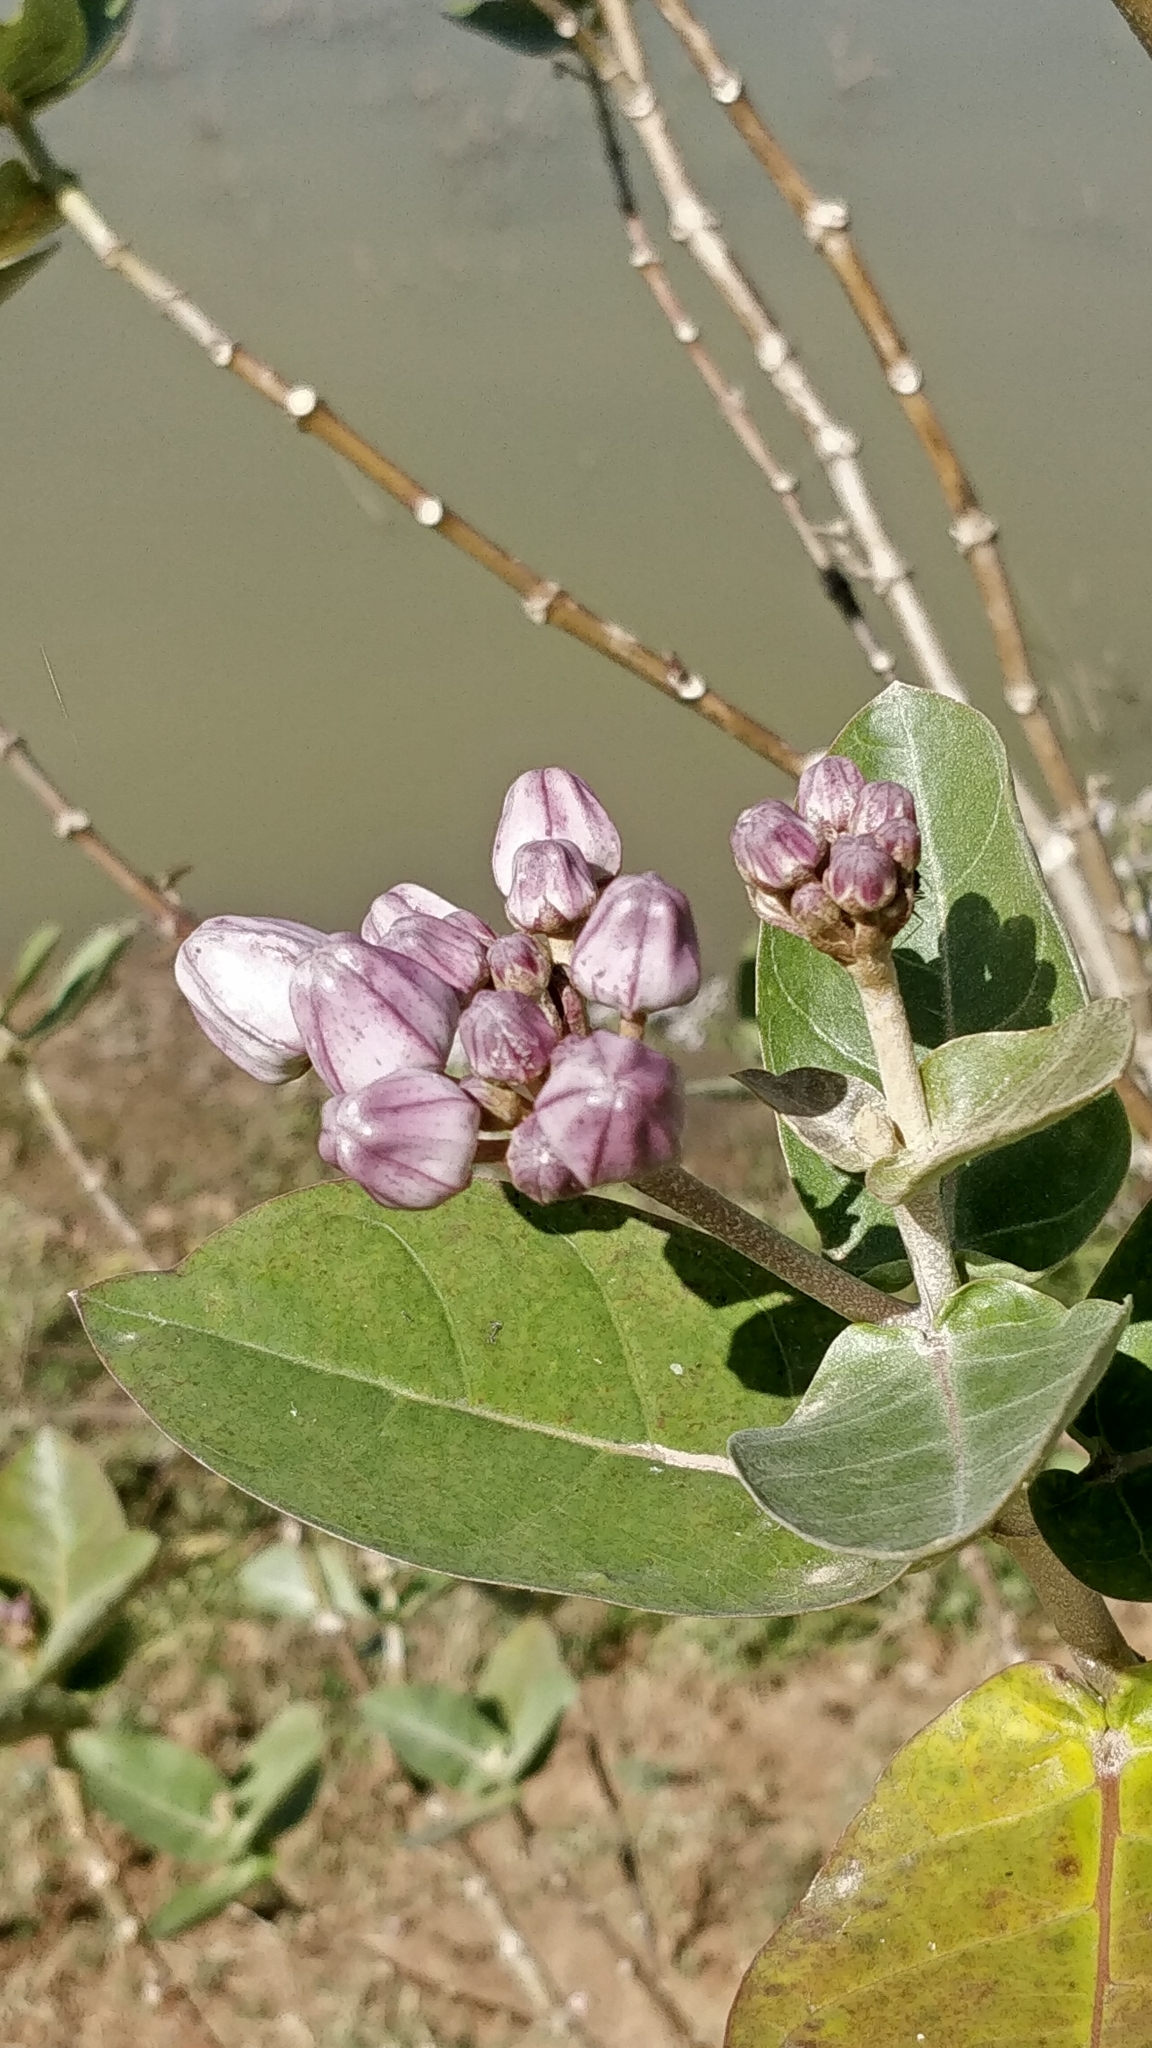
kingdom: Plantae
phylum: Tracheophyta
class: Magnoliopsida
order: Gentianales
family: Apocynaceae
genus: Calotropis
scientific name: Calotropis gigantea
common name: Crown flower
